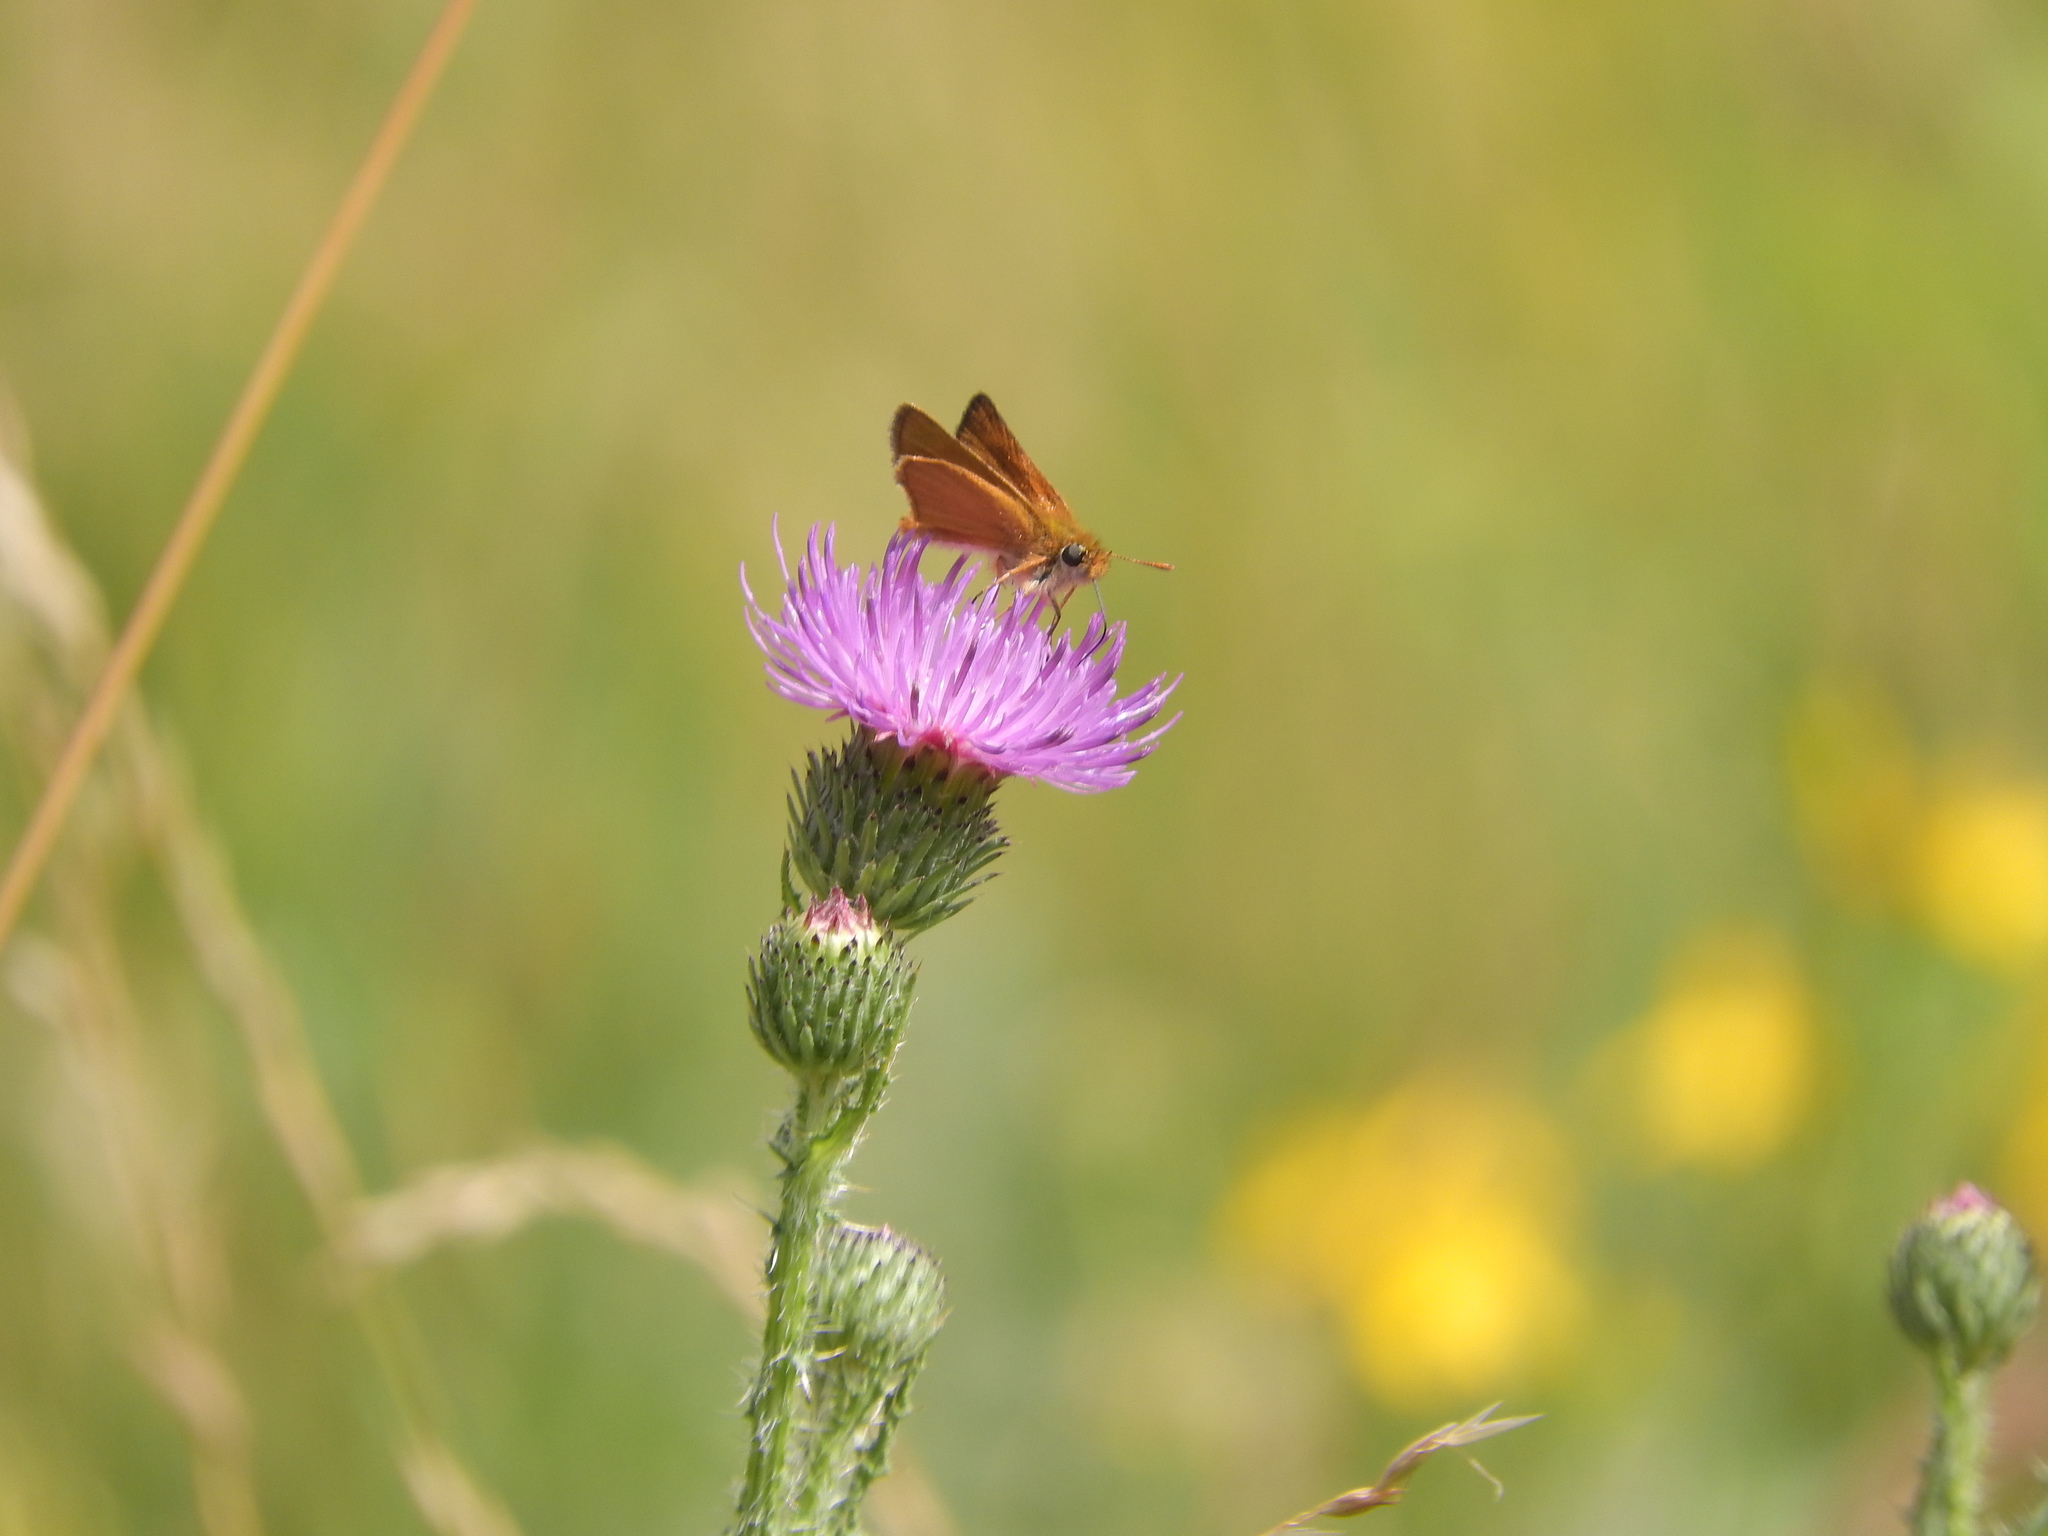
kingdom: Animalia
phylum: Arthropoda
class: Insecta
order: Lepidoptera
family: Hesperiidae
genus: Thymelicus
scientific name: Thymelicus acteon
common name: Lulworth skipper
